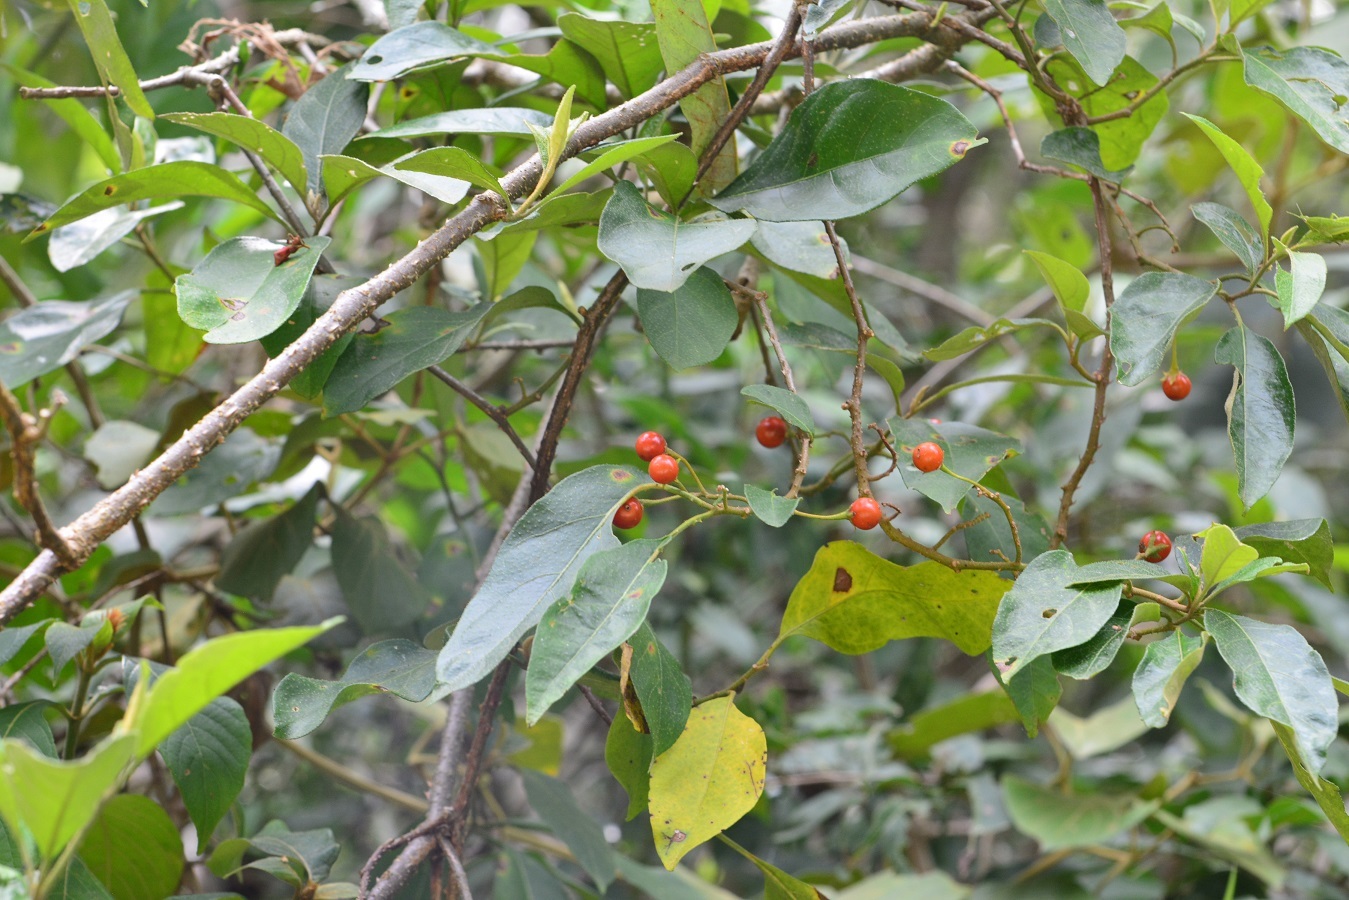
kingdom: Plantae
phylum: Tracheophyta
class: Magnoliopsida
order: Solanales
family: Solanaceae
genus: Solanum
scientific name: Solanum glaucescens
